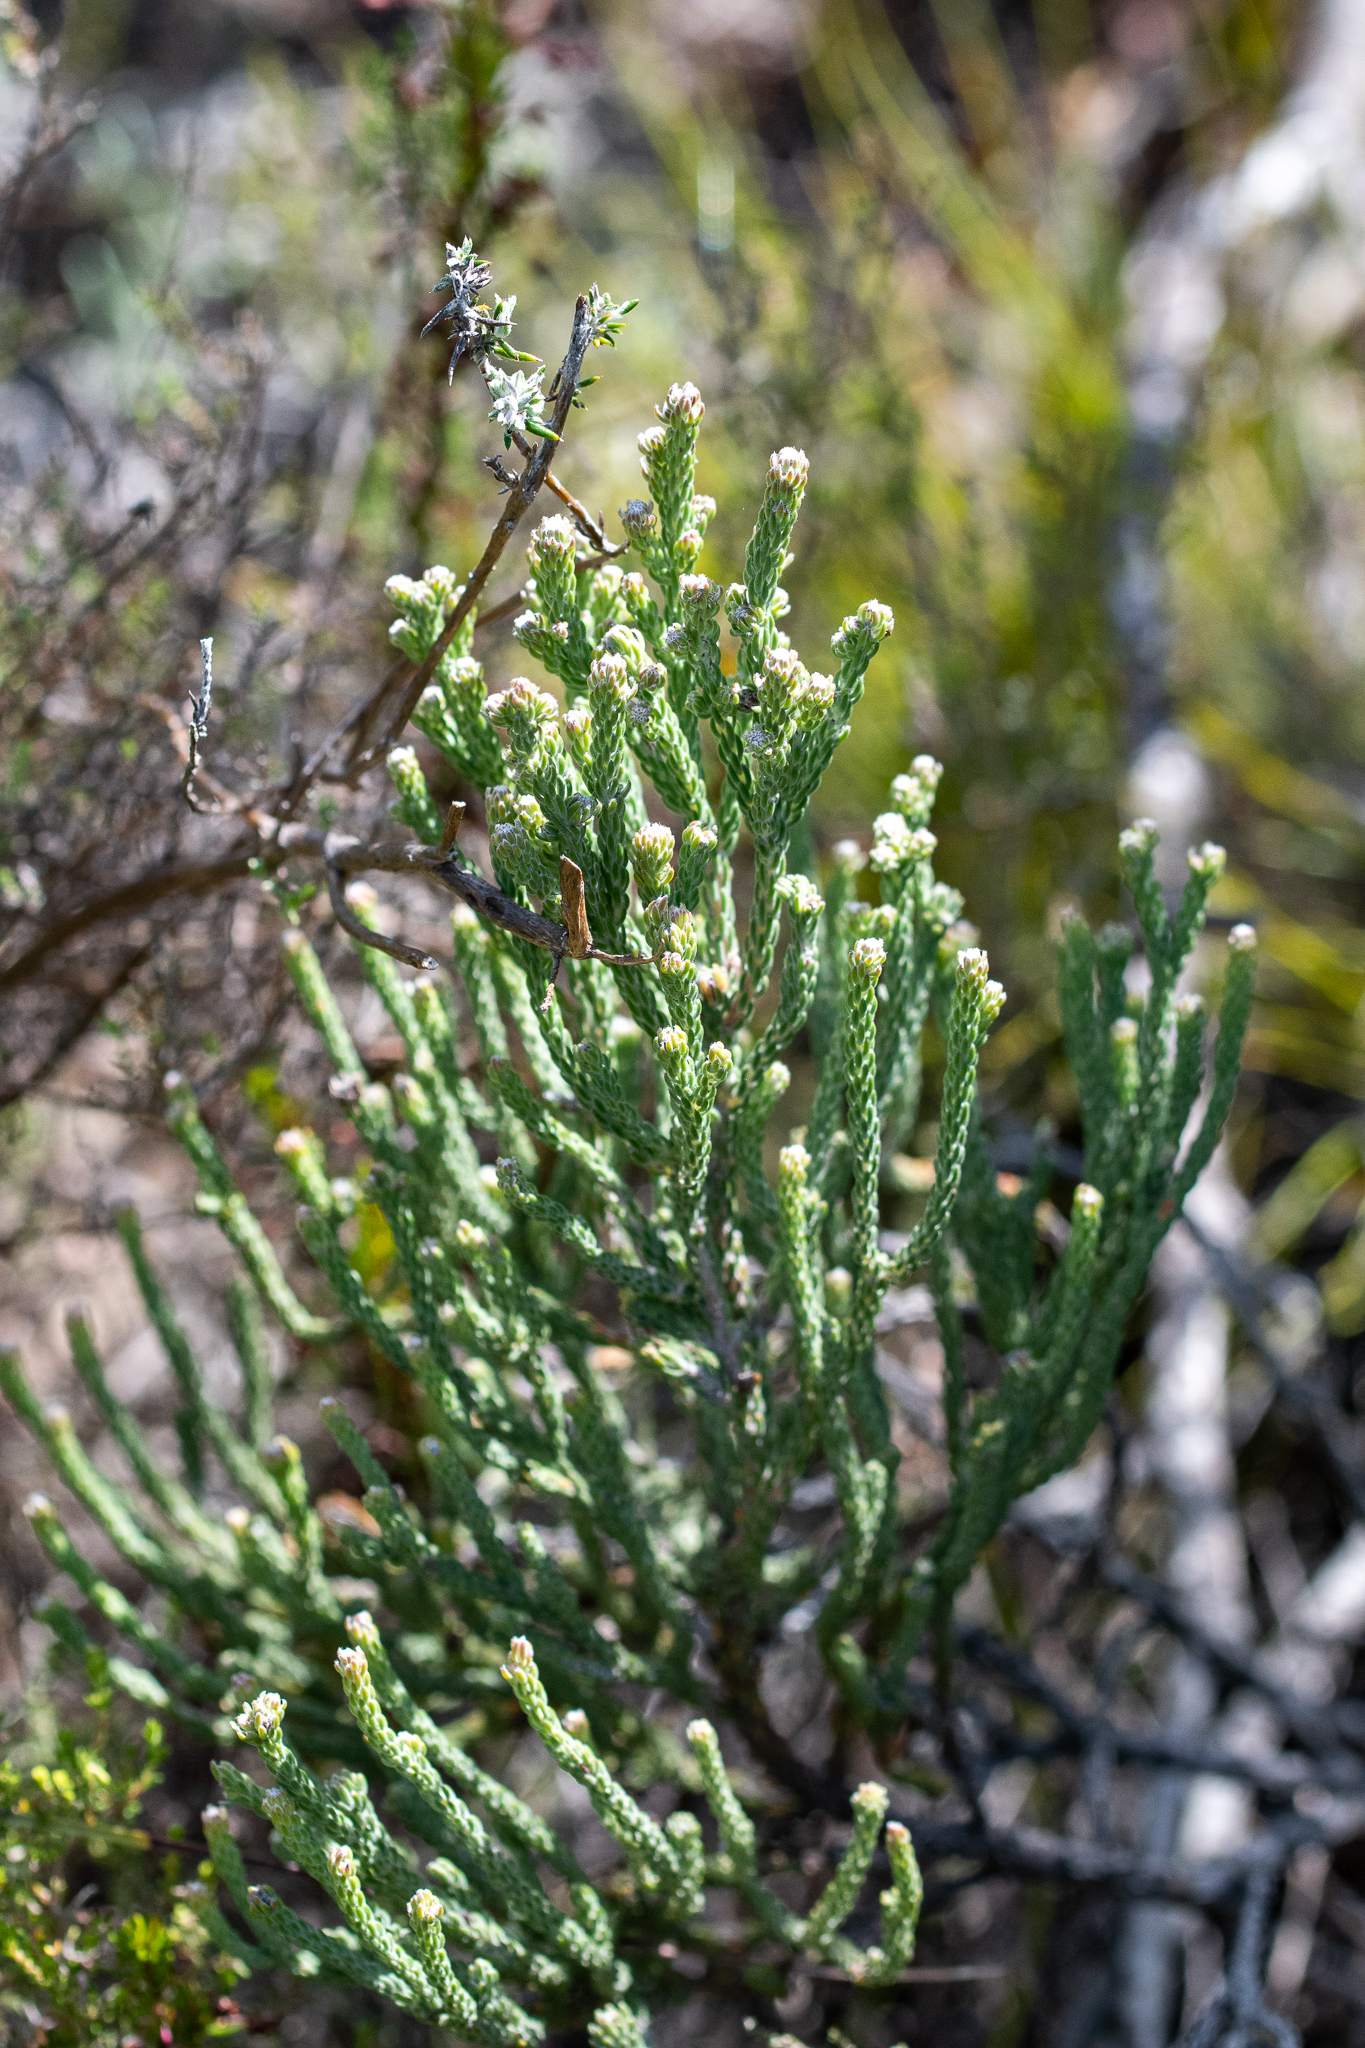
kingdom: Plantae
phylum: Tracheophyta
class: Magnoliopsida
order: Bruniales
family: Bruniaceae
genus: Brunia
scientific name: Brunia laevis
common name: Silver brunia
